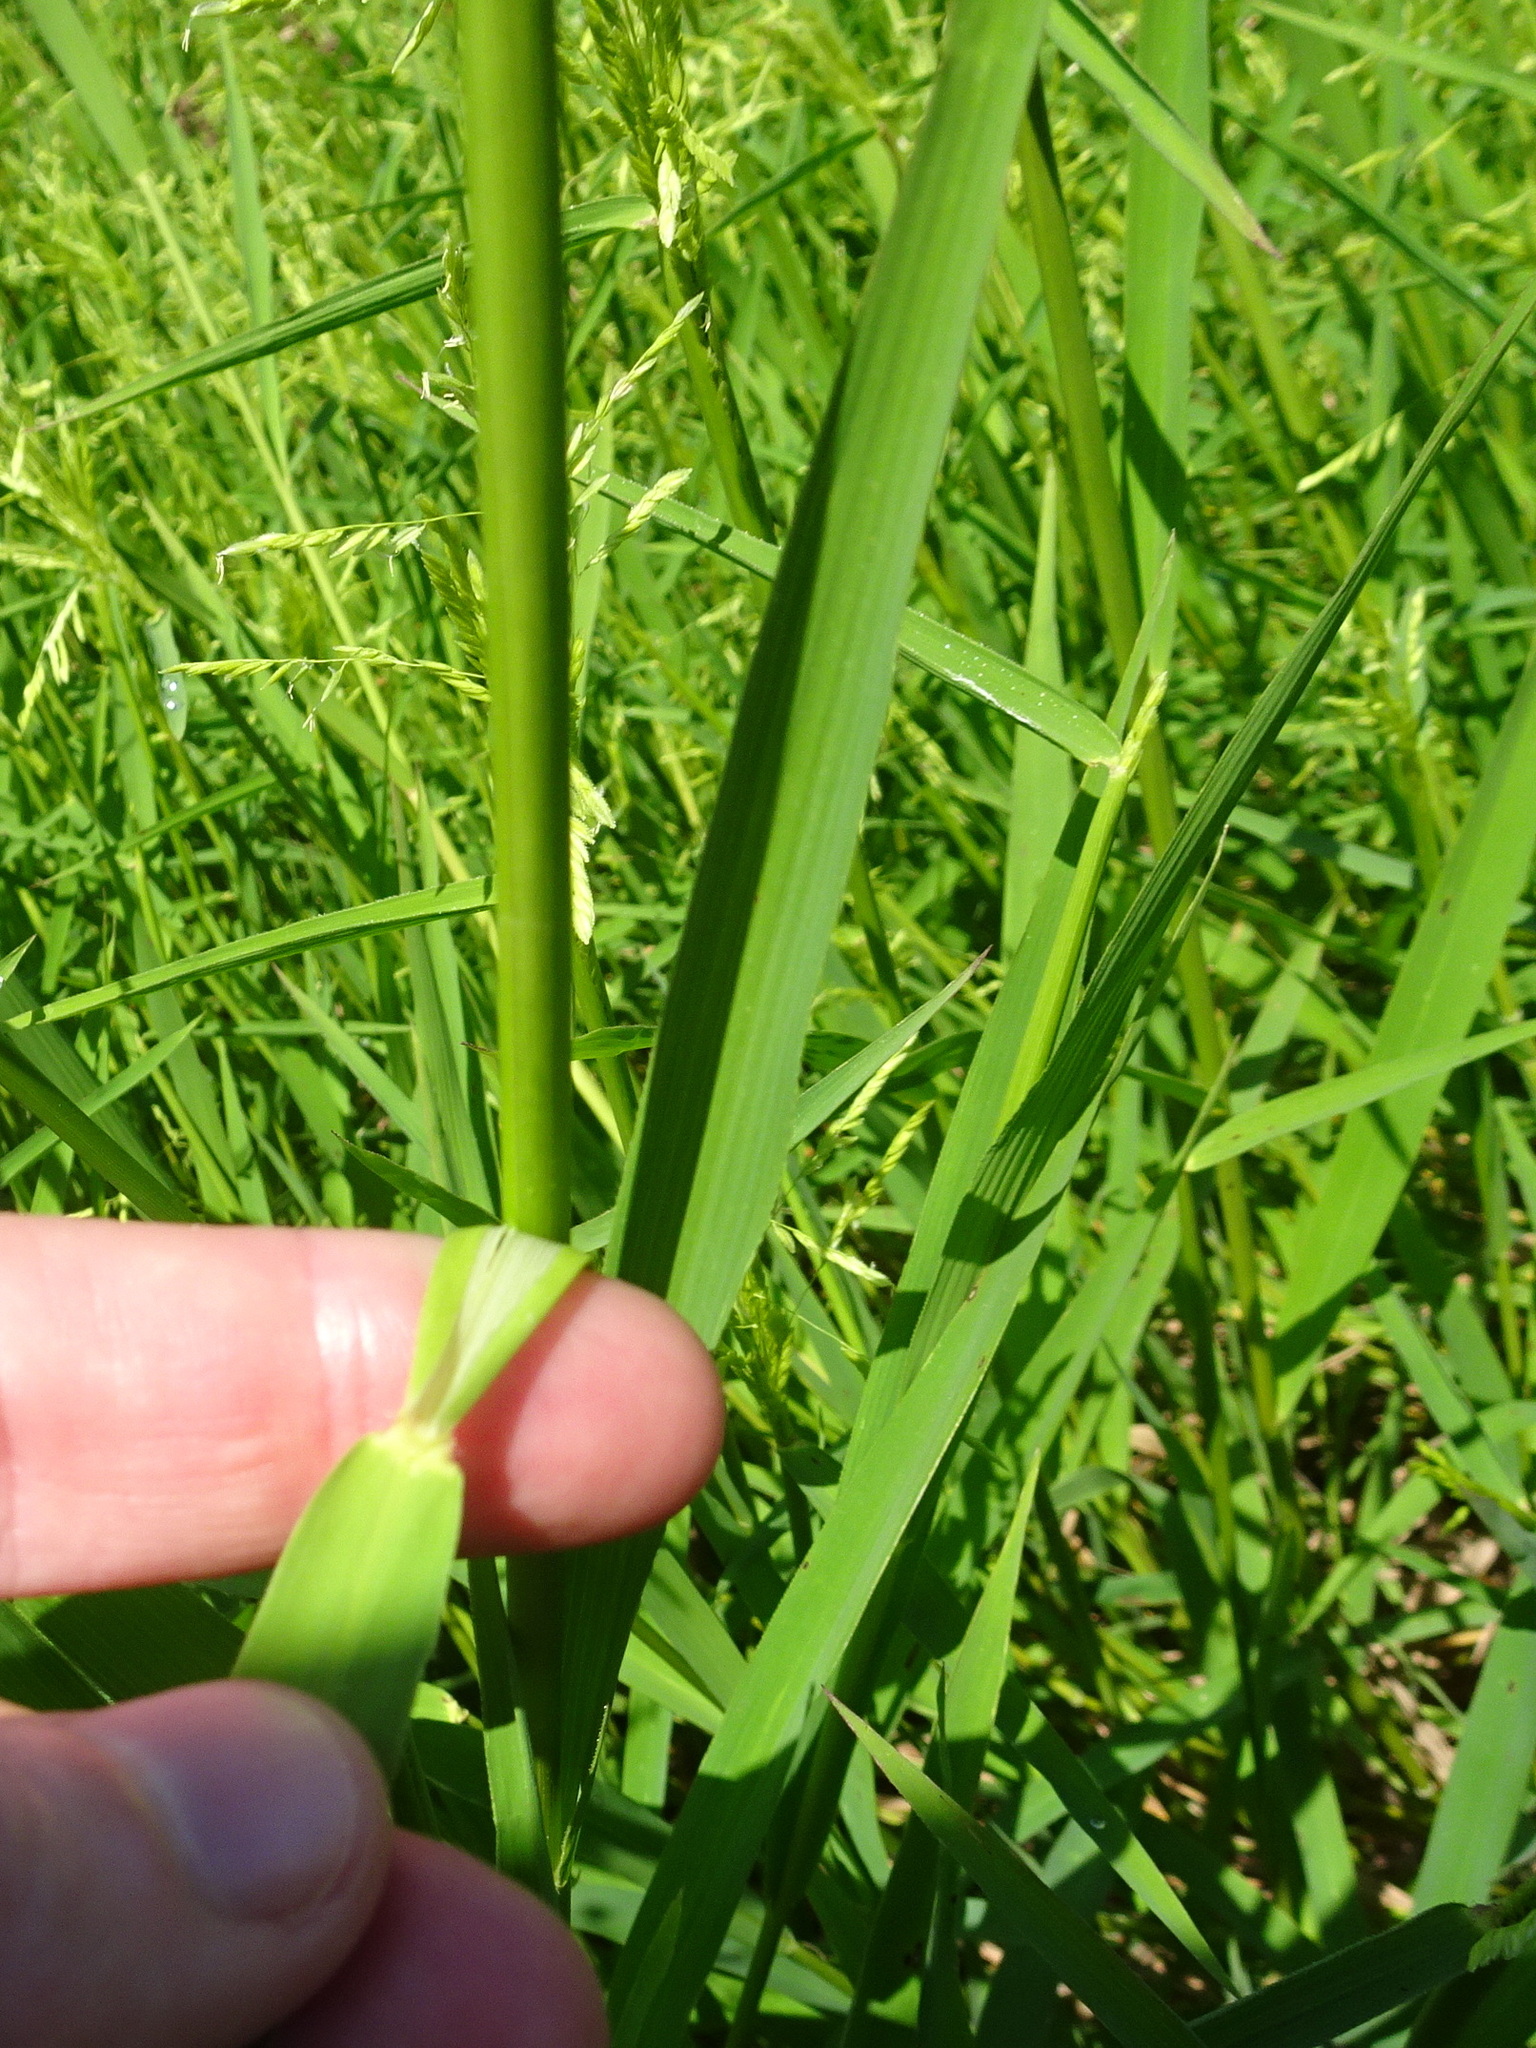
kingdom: Plantae
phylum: Tracheophyta
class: Liliopsida
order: Poales
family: Poaceae
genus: Leersia
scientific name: Leersia oryzoides
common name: Cut-grass
